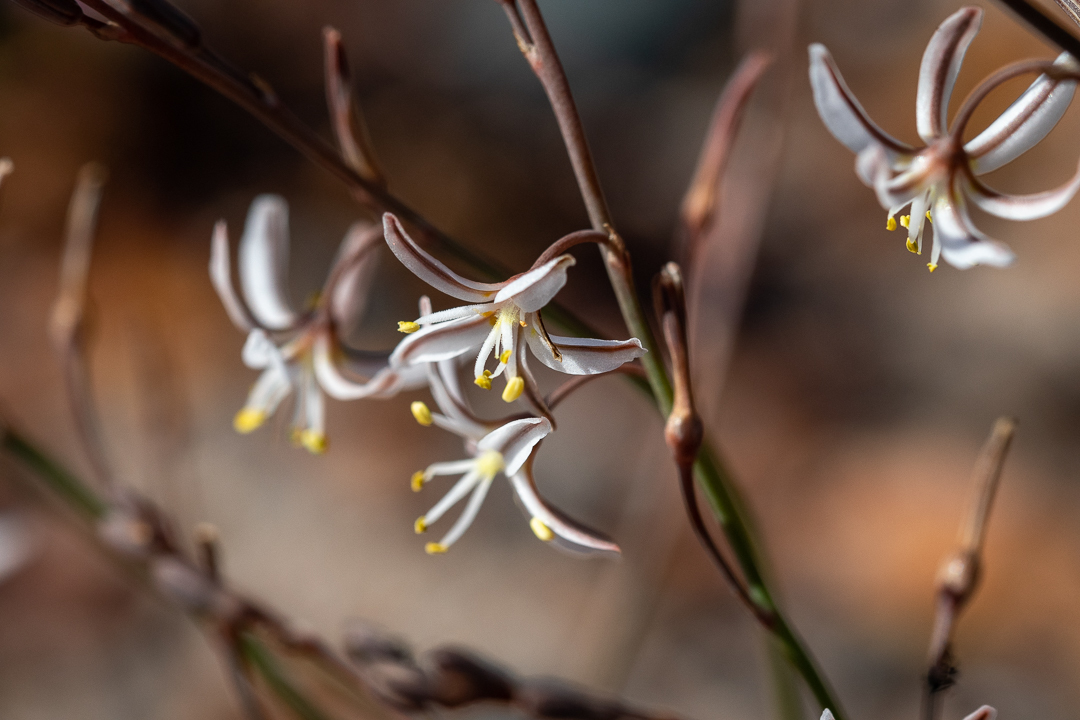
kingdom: Plantae
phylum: Tracheophyta
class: Liliopsida
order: Asparagales
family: Asphodelaceae
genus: Trachyandra
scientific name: Trachyandra flexifolia
